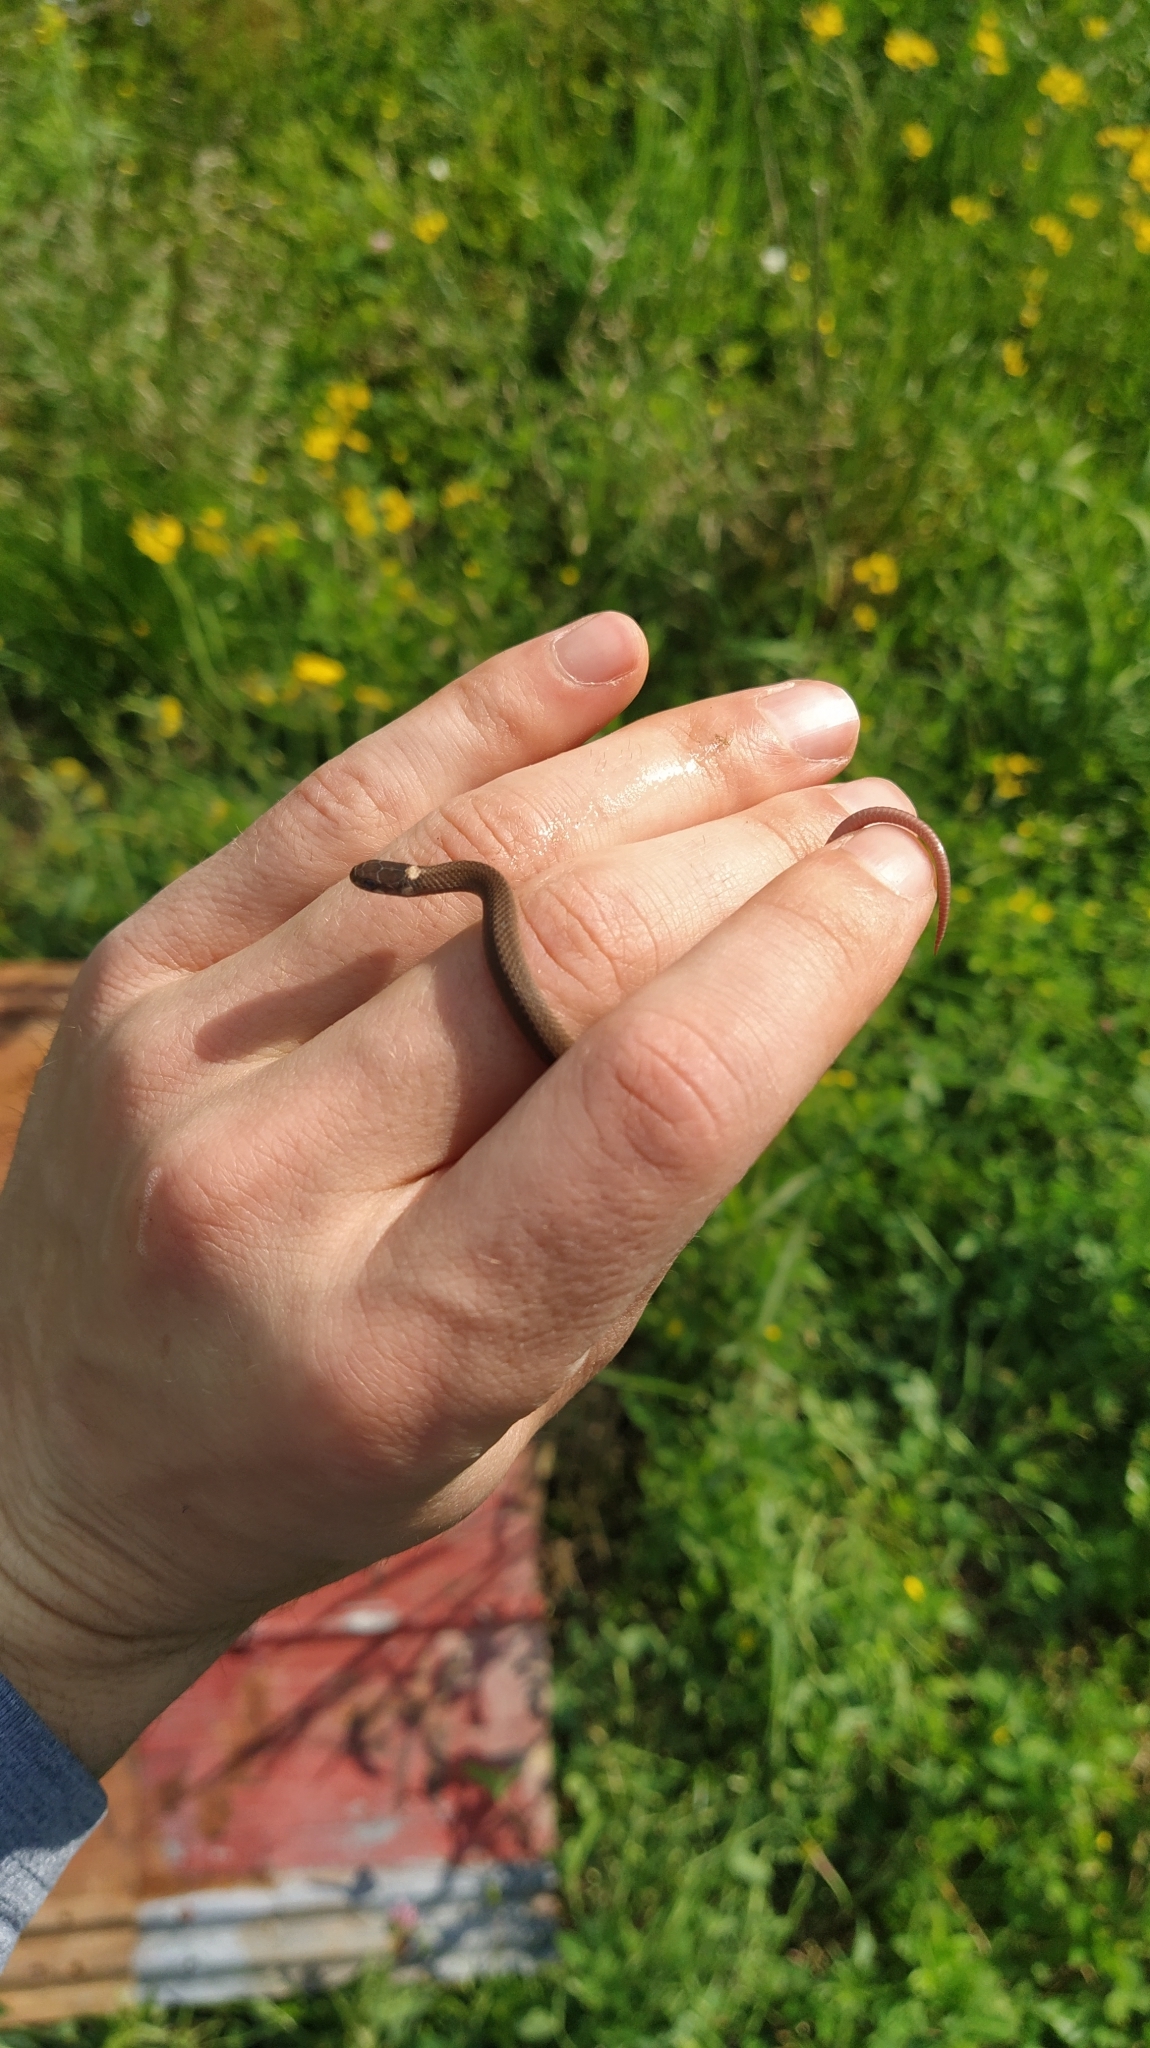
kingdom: Animalia
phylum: Chordata
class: Squamata
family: Colubridae
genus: Storeria
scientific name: Storeria occipitomaculata
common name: Redbelly snake
